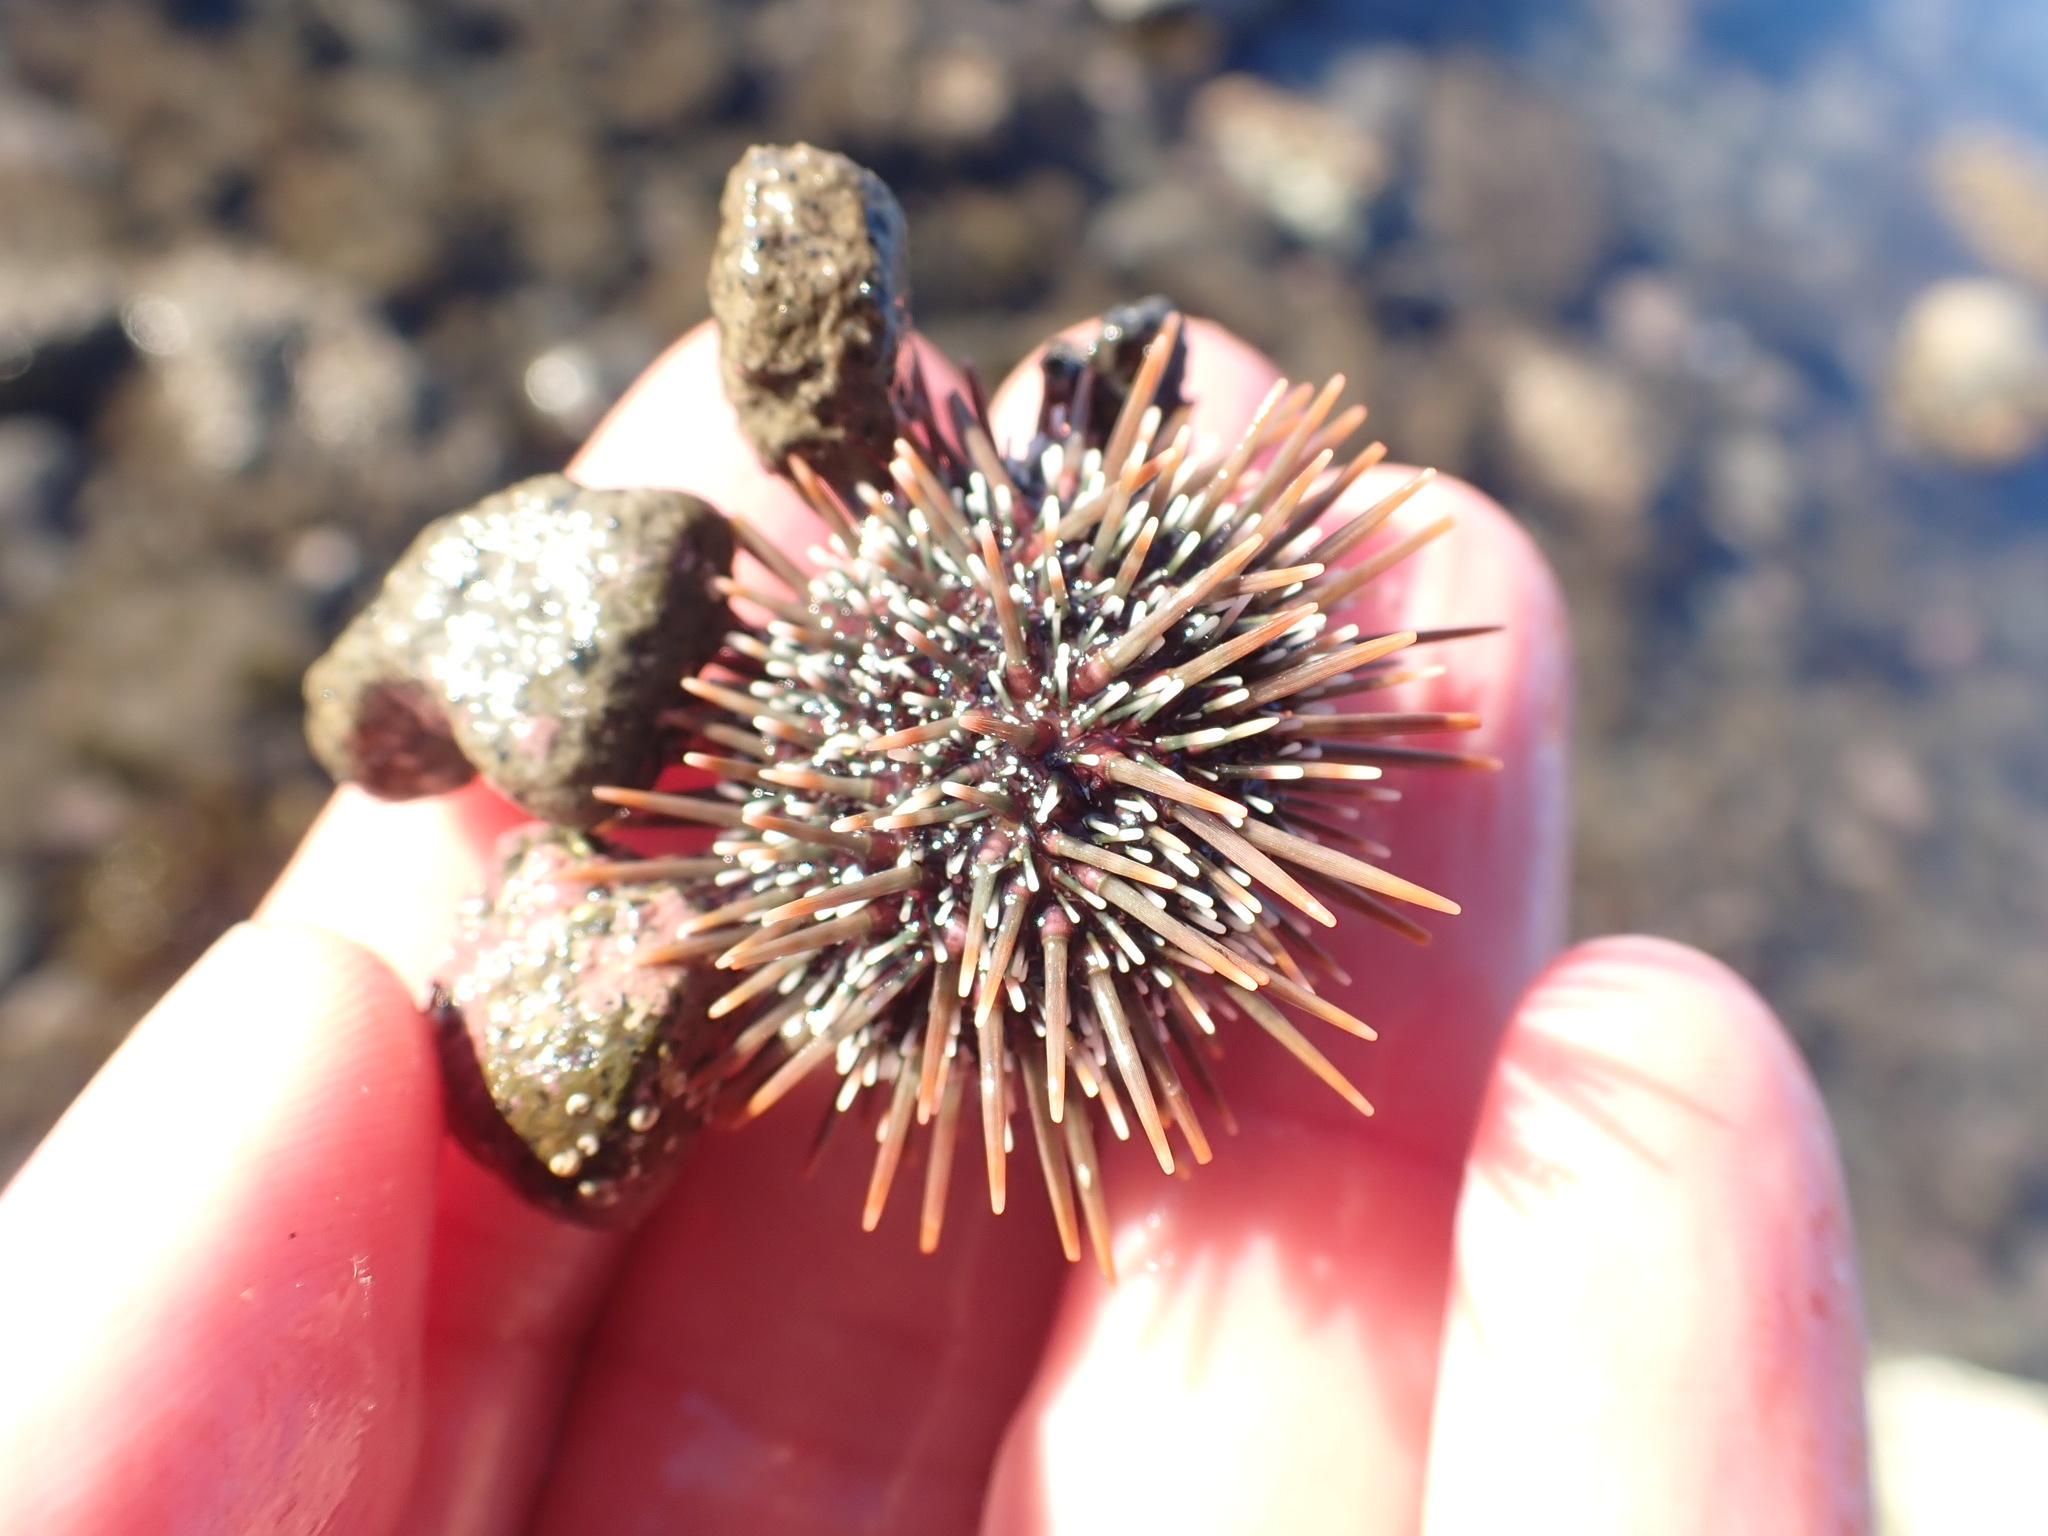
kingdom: Animalia
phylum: Echinodermata
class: Echinoidea
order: Camarodonta
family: Echinometridae
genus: Evechinus
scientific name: Evechinus chloroticus
